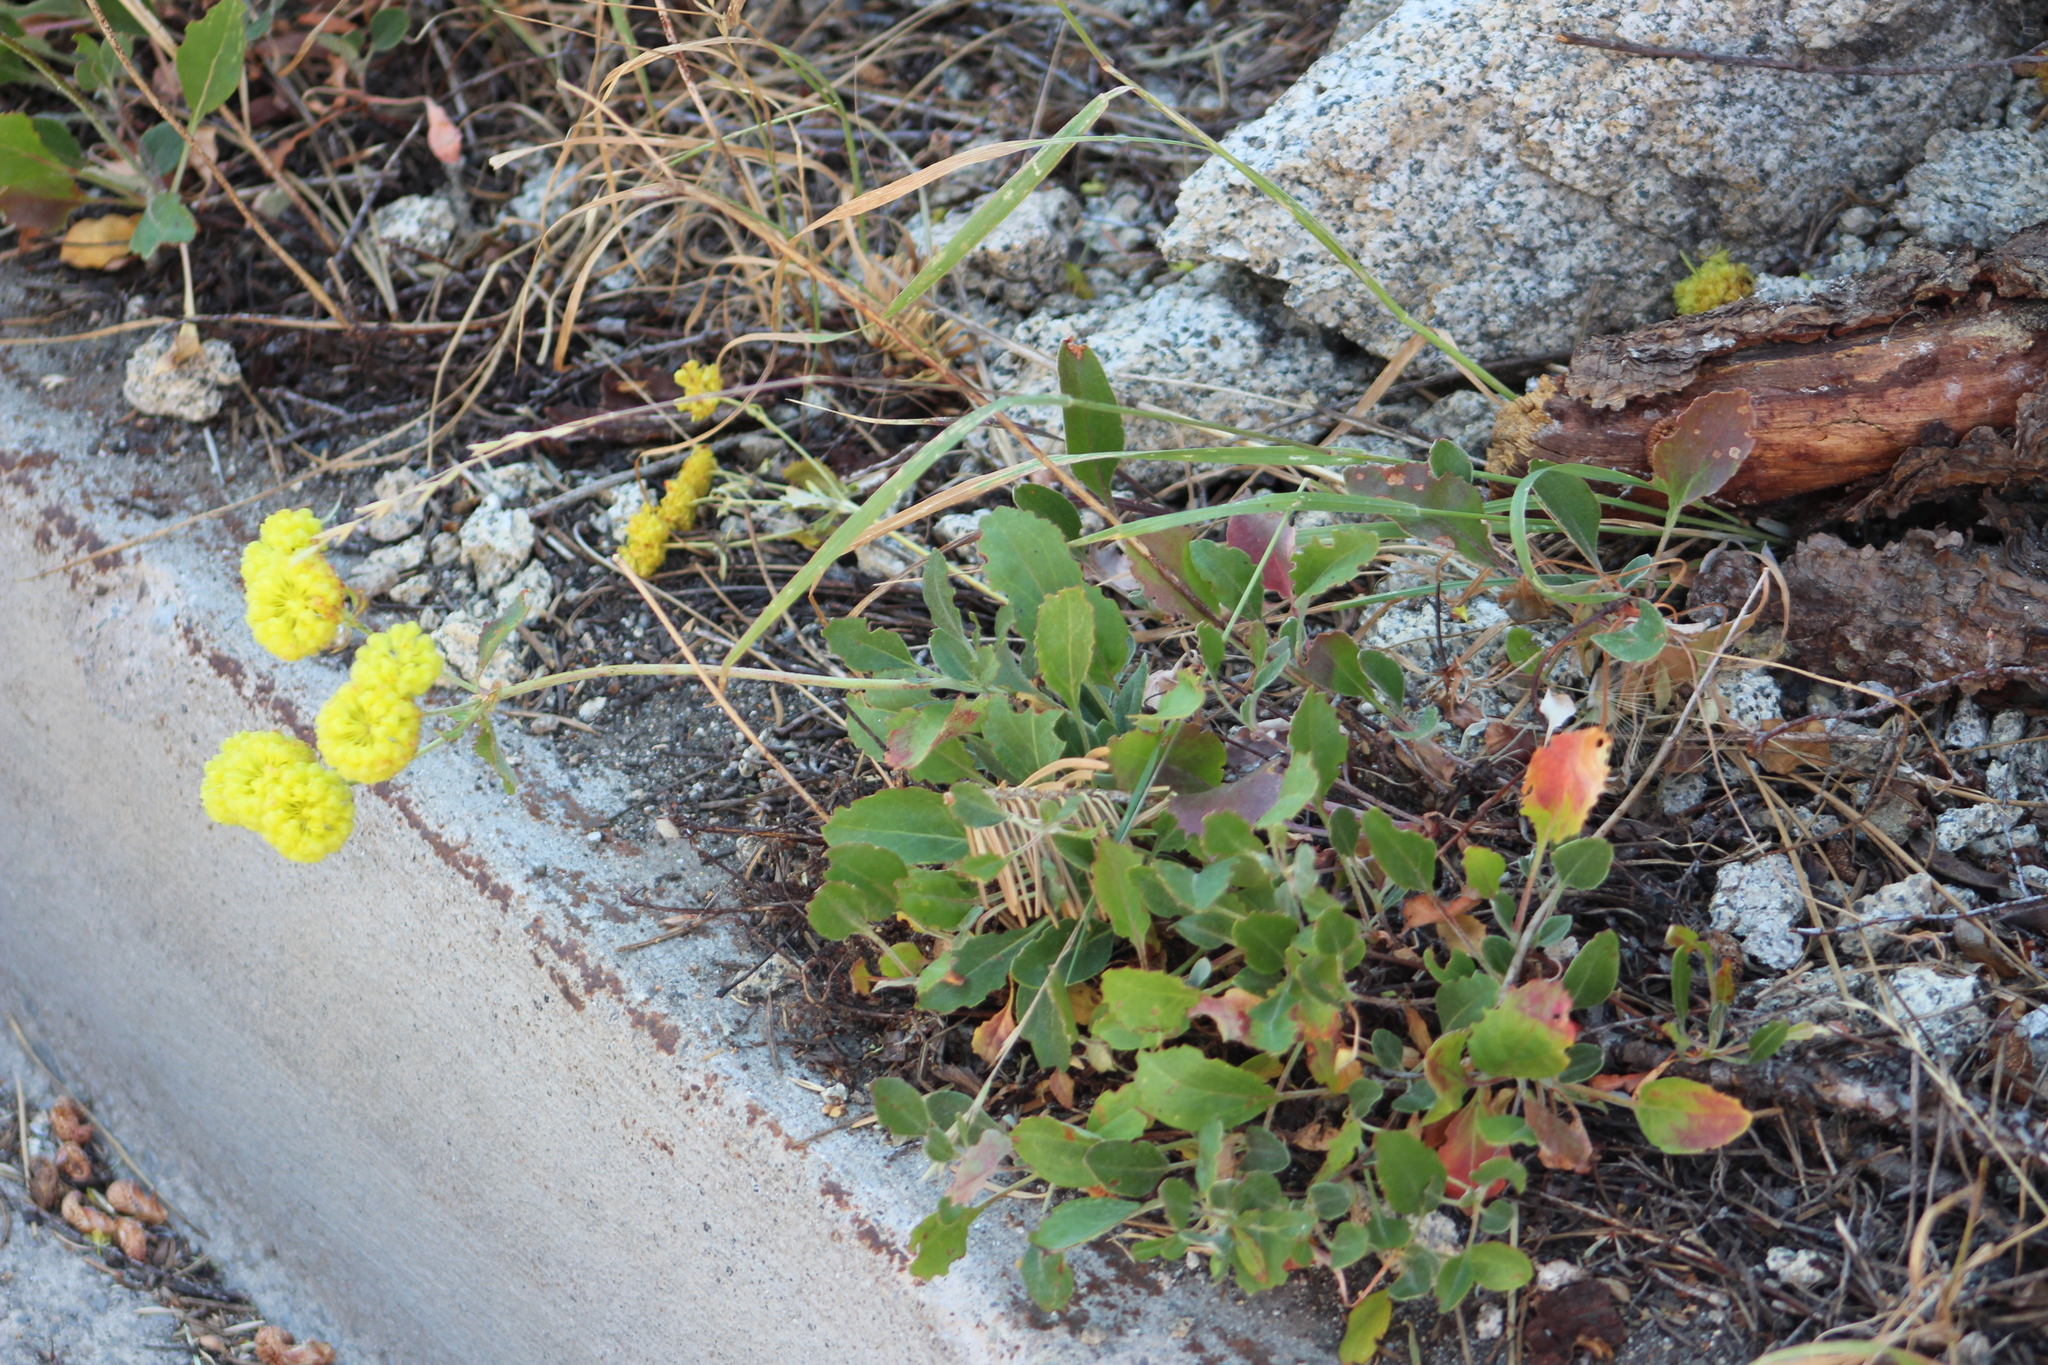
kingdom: Plantae
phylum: Tracheophyta
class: Magnoliopsida
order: Caryophyllales
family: Polygonaceae
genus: Eriogonum
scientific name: Eriogonum umbellatum
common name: Sulfur-buckwheat
